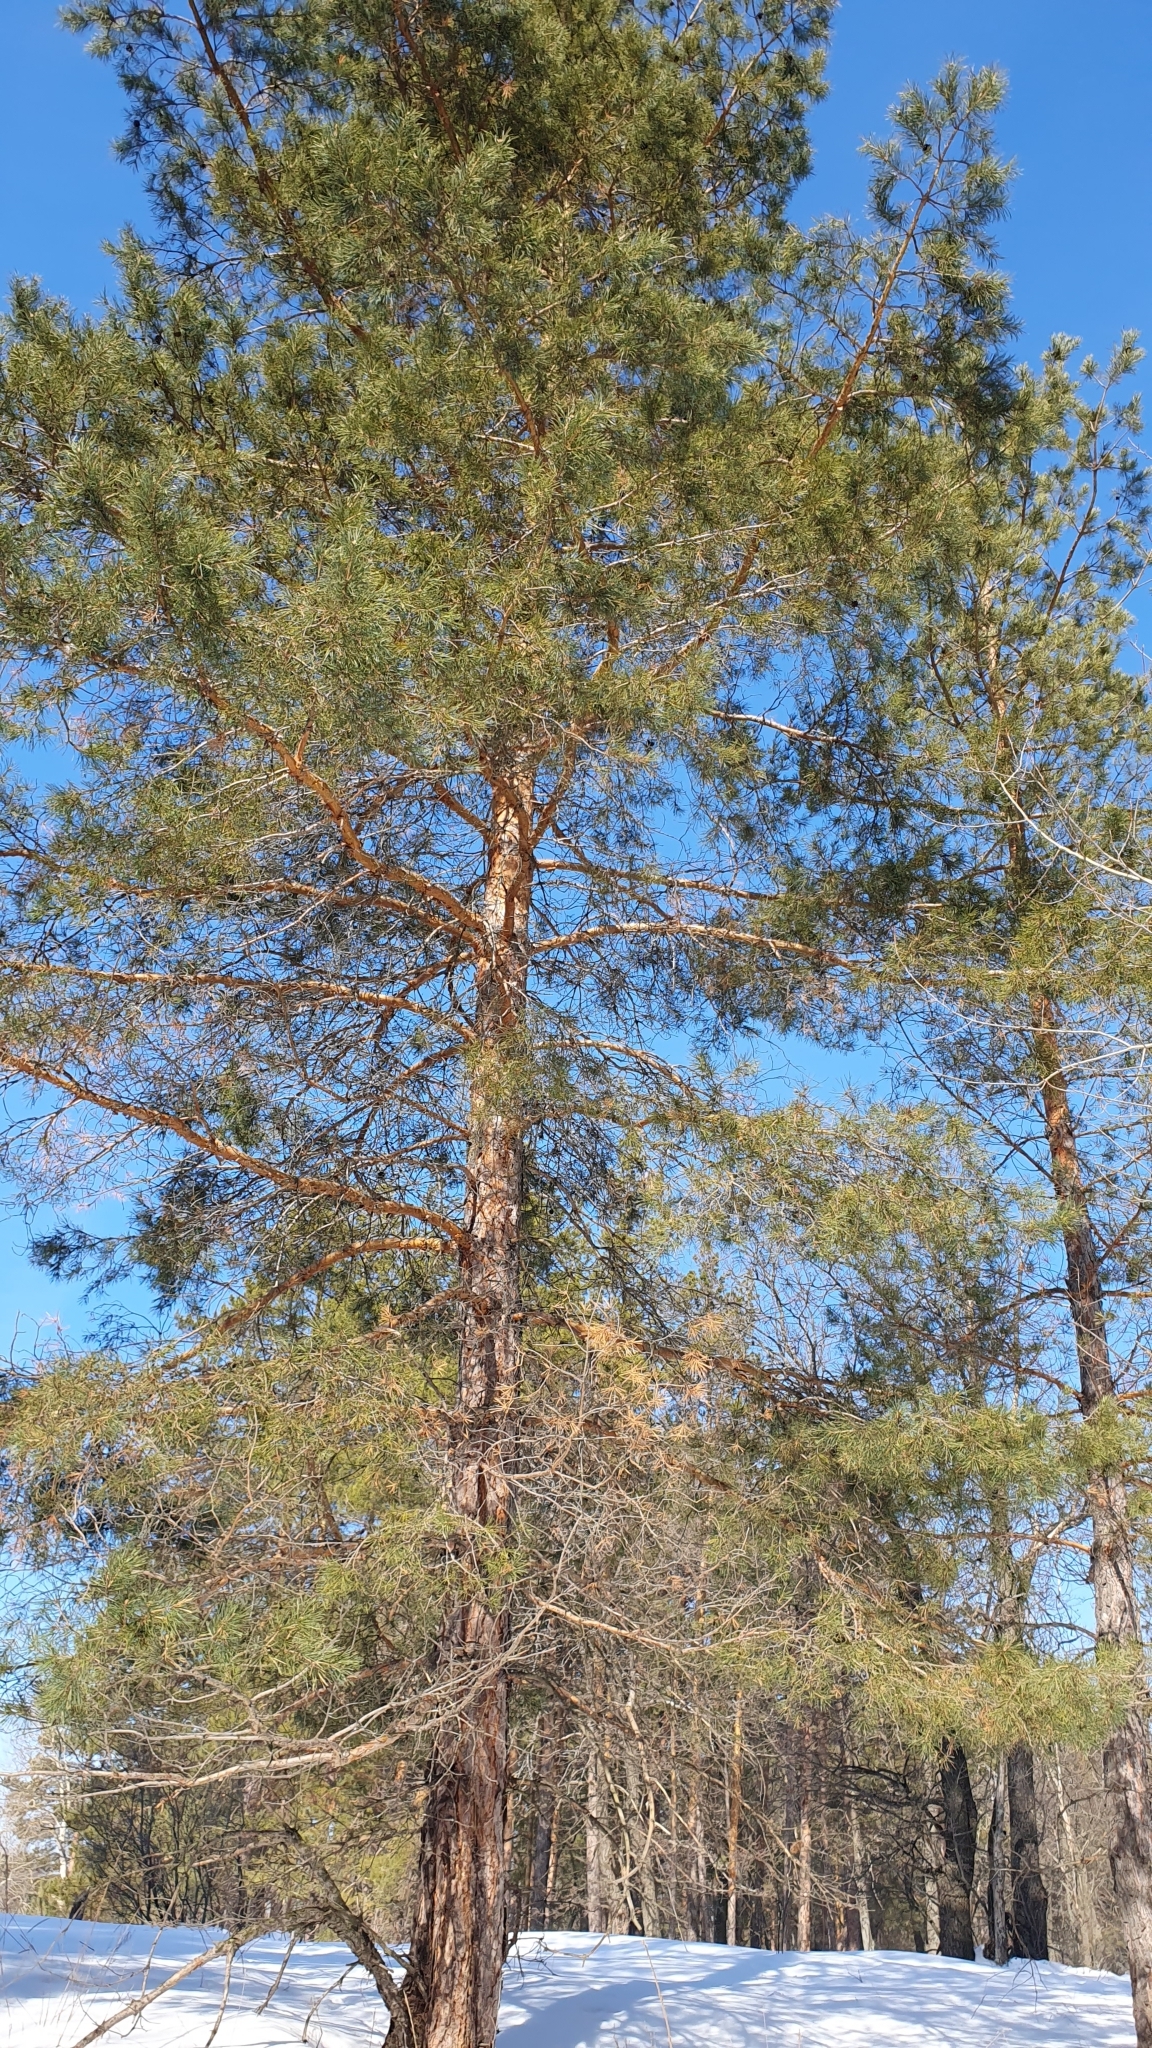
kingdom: Plantae
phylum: Tracheophyta
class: Pinopsida
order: Pinales
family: Pinaceae
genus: Pinus
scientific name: Pinus sylvestris
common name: Scots pine
